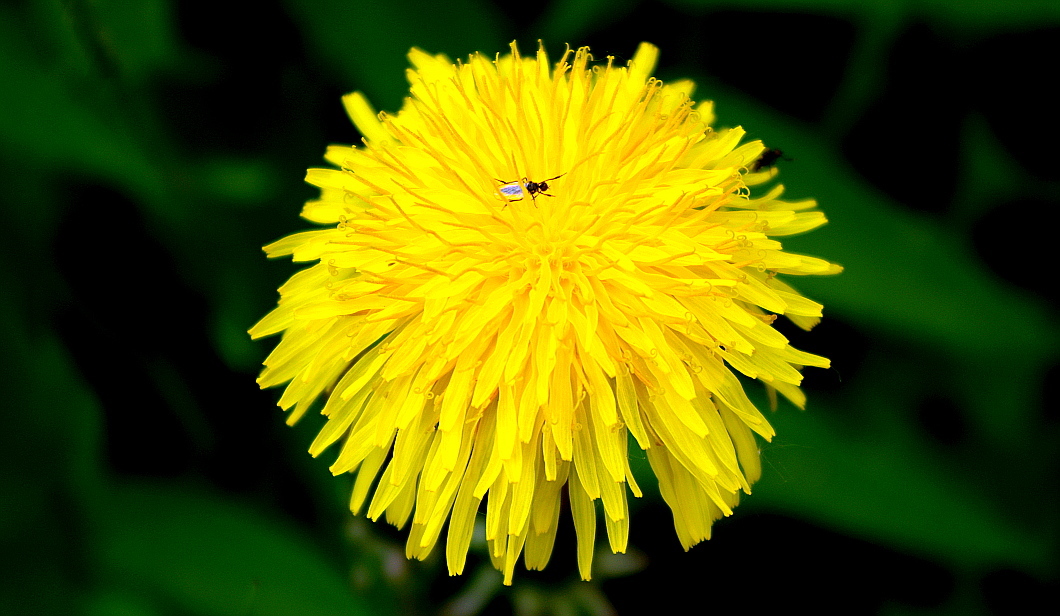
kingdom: Plantae
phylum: Tracheophyta
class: Magnoliopsida
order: Asterales
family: Asteraceae
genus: Taraxacum
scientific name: Taraxacum officinale
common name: Common dandelion
